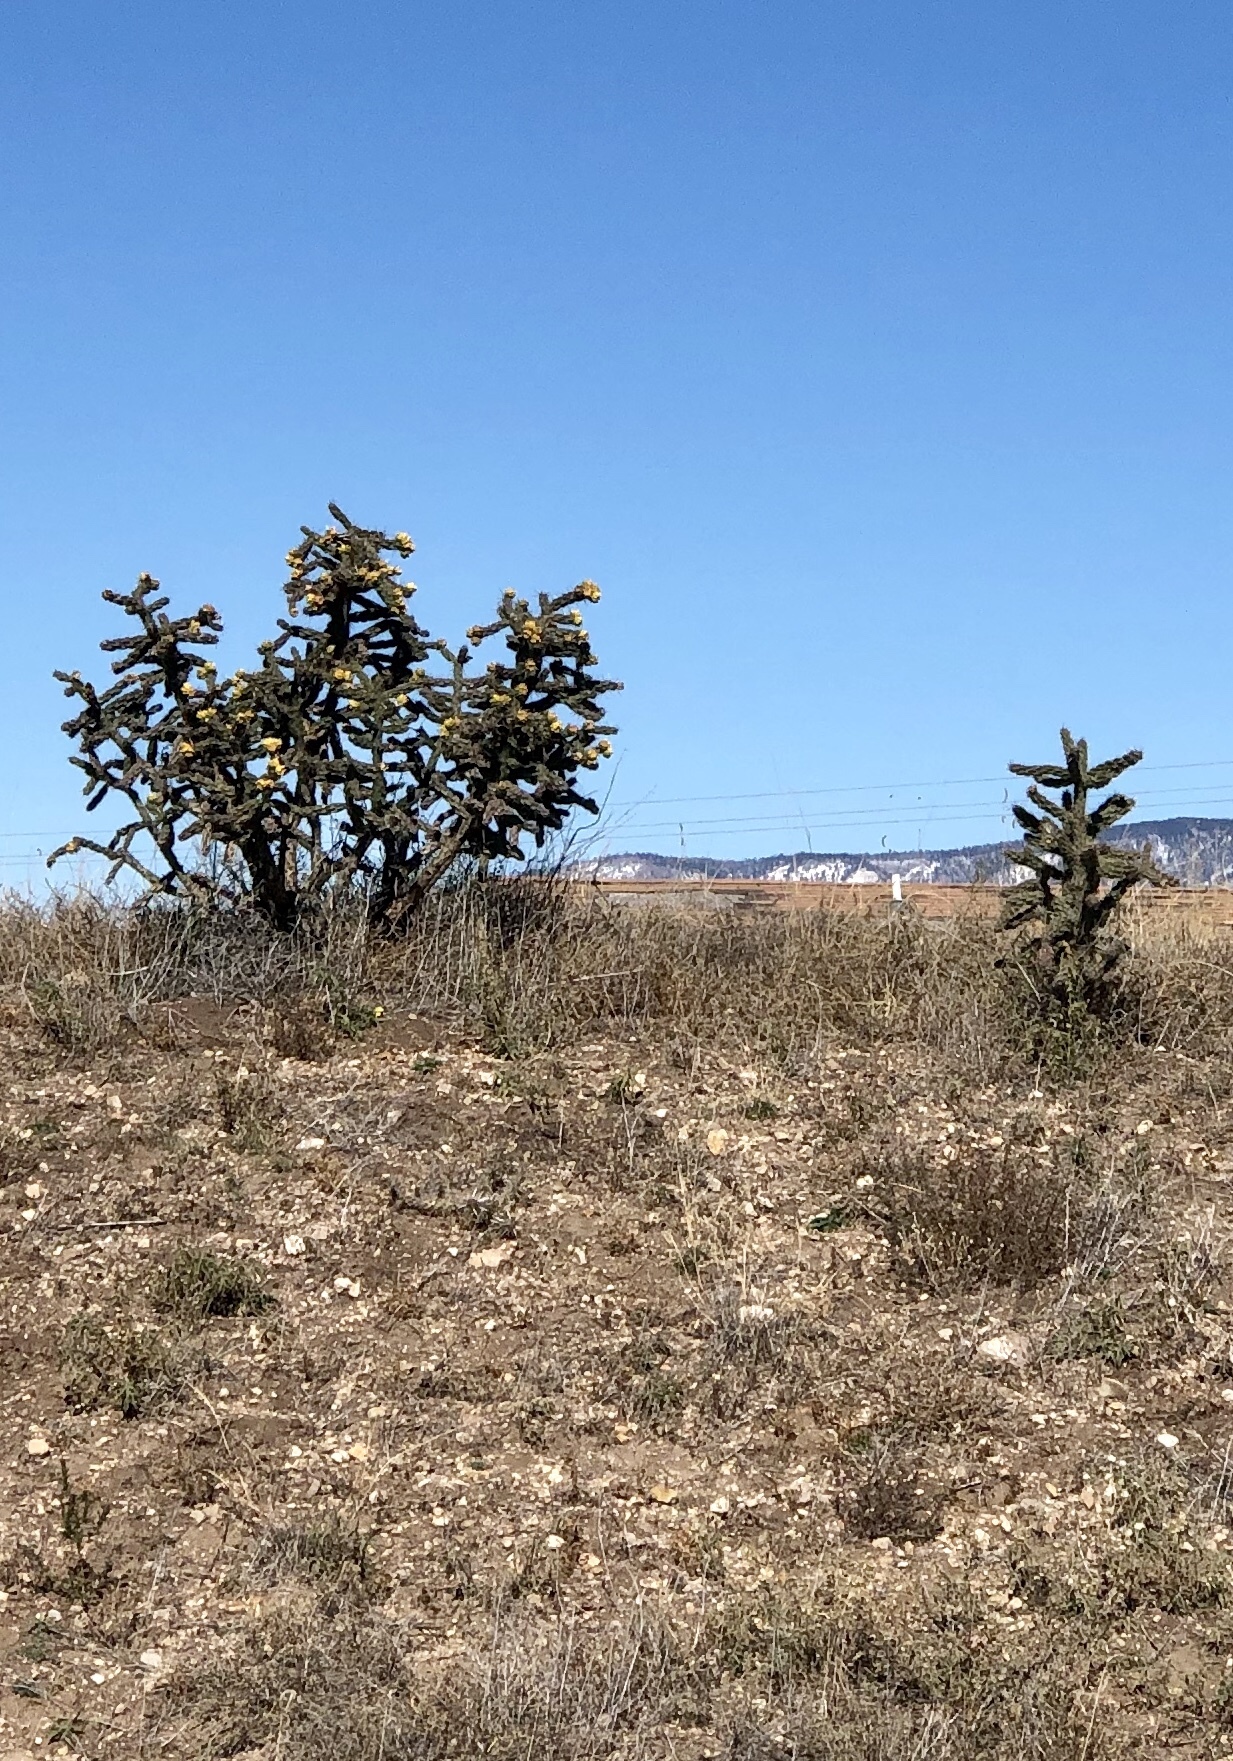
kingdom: Plantae
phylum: Tracheophyta
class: Magnoliopsida
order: Caryophyllales
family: Cactaceae
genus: Cylindropuntia
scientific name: Cylindropuntia imbricata
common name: Candelabrum cactus
